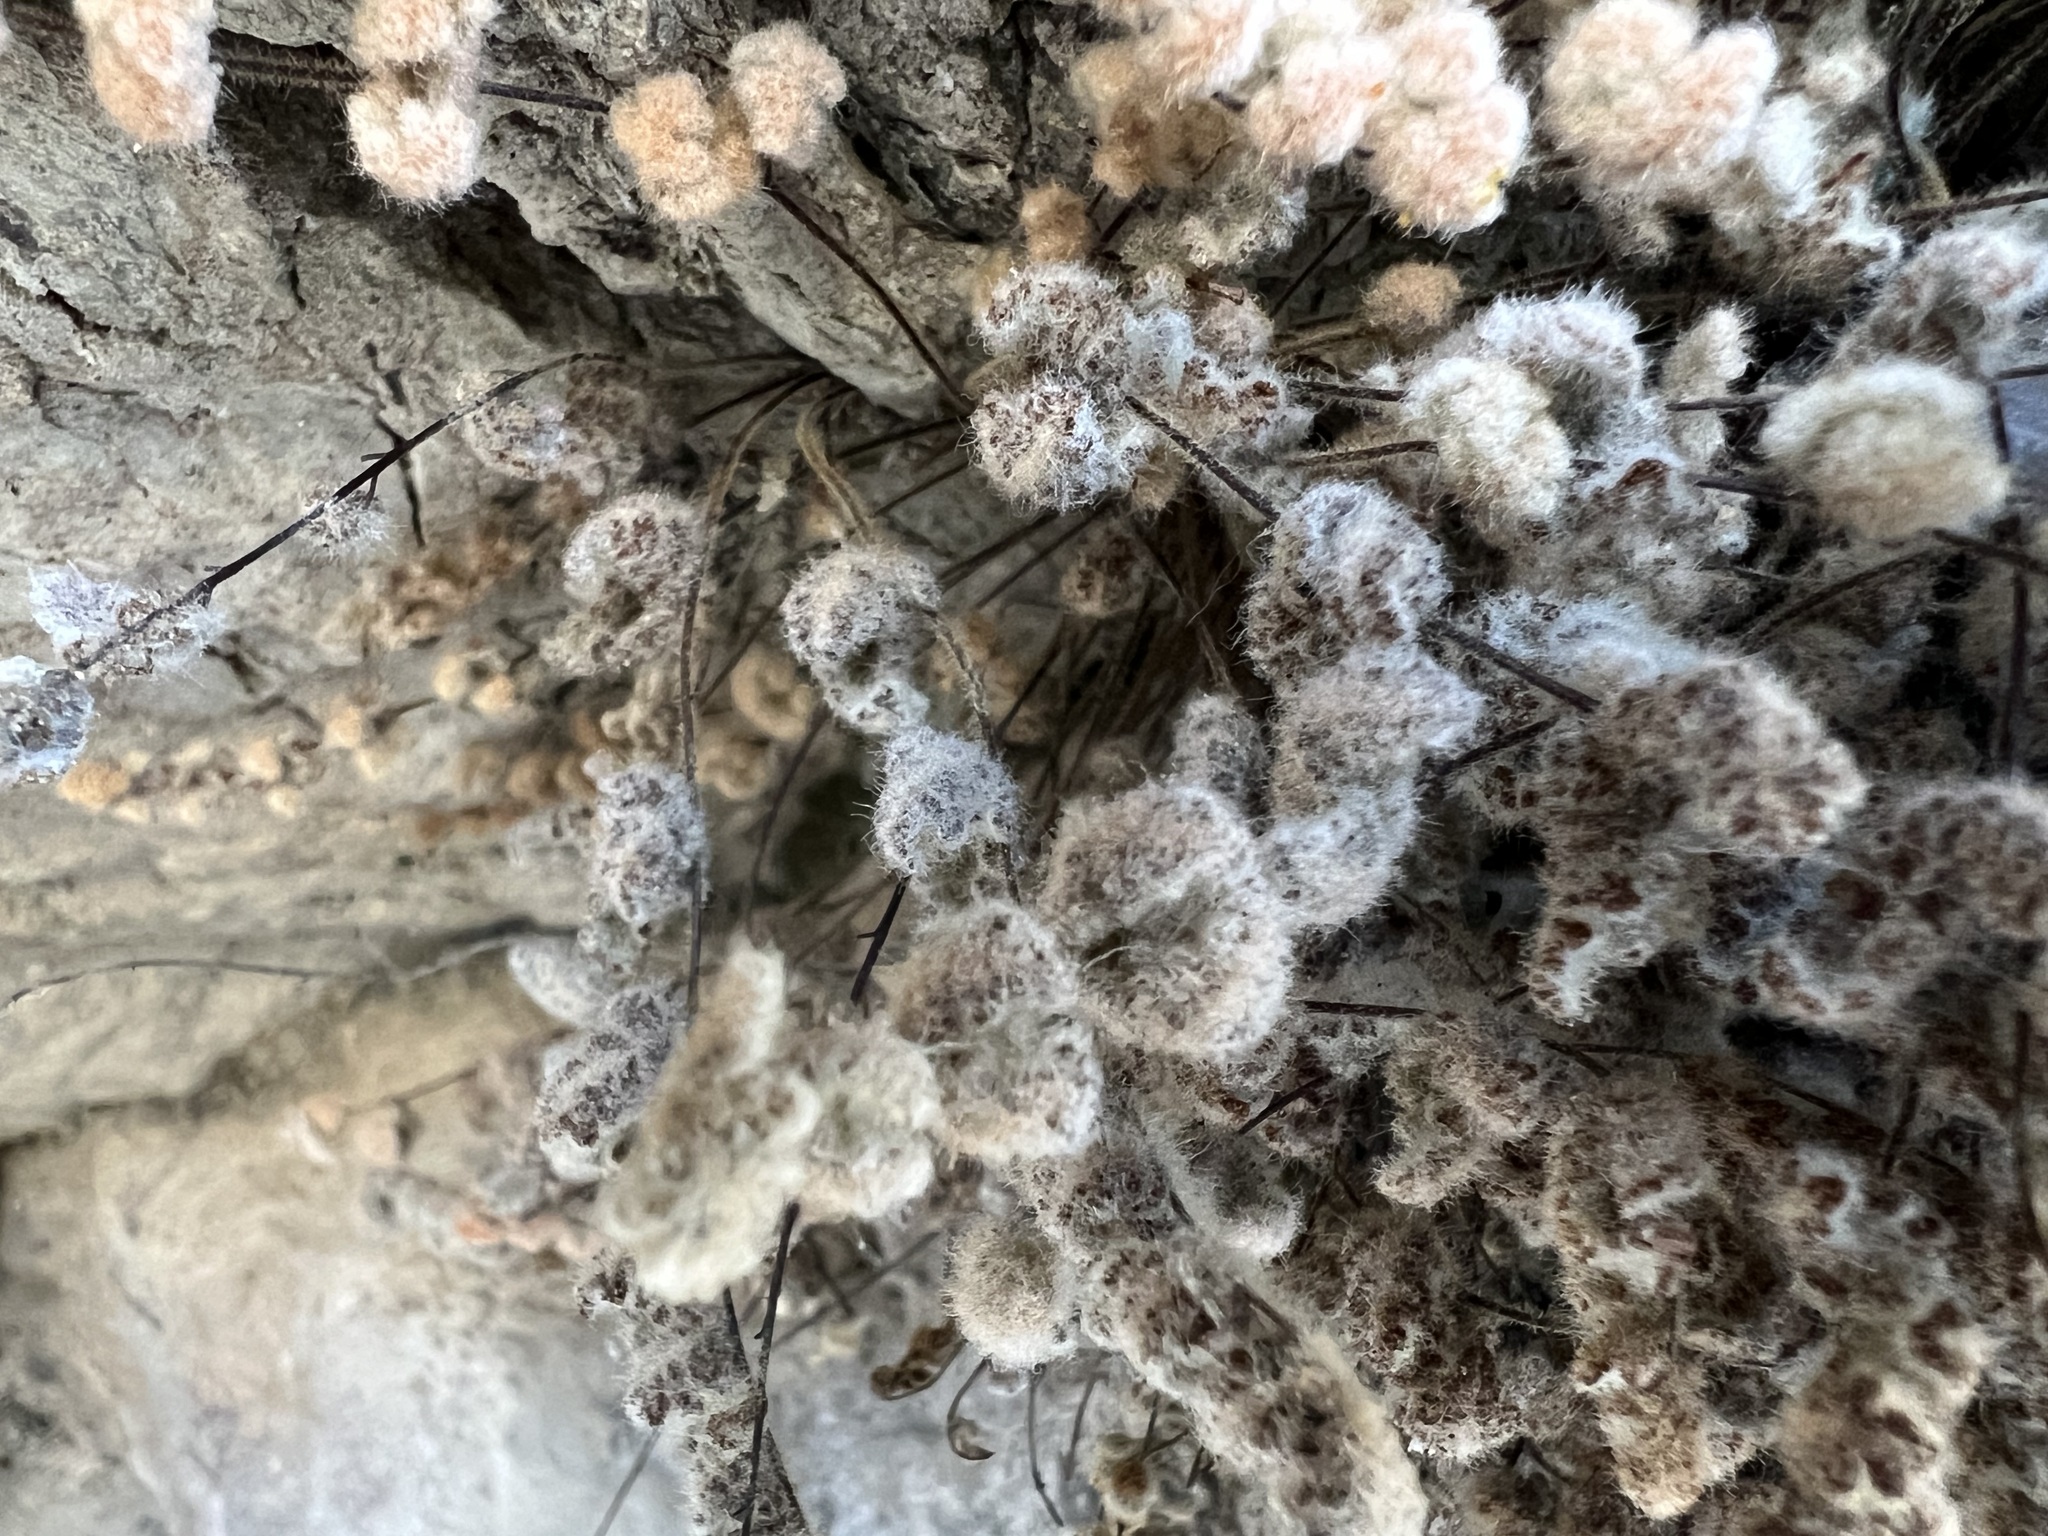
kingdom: Plantae
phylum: Tracheophyta
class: Polypodiopsida
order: Polypodiales
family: Pteridaceae
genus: Myriopteris
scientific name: Myriopteris parryi
